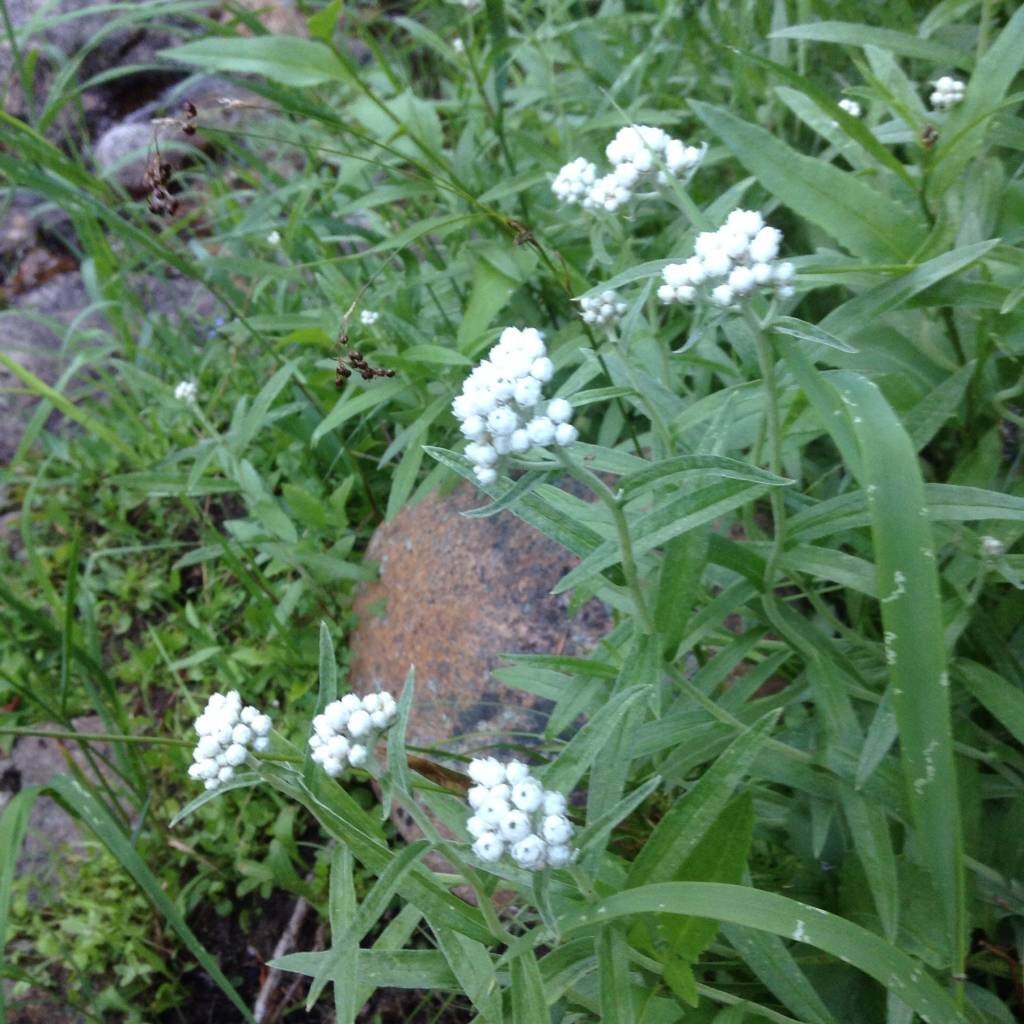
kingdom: Plantae
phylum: Tracheophyta
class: Magnoliopsida
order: Asterales
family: Asteraceae
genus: Anaphalis
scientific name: Anaphalis margaritacea
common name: Pearly everlasting
